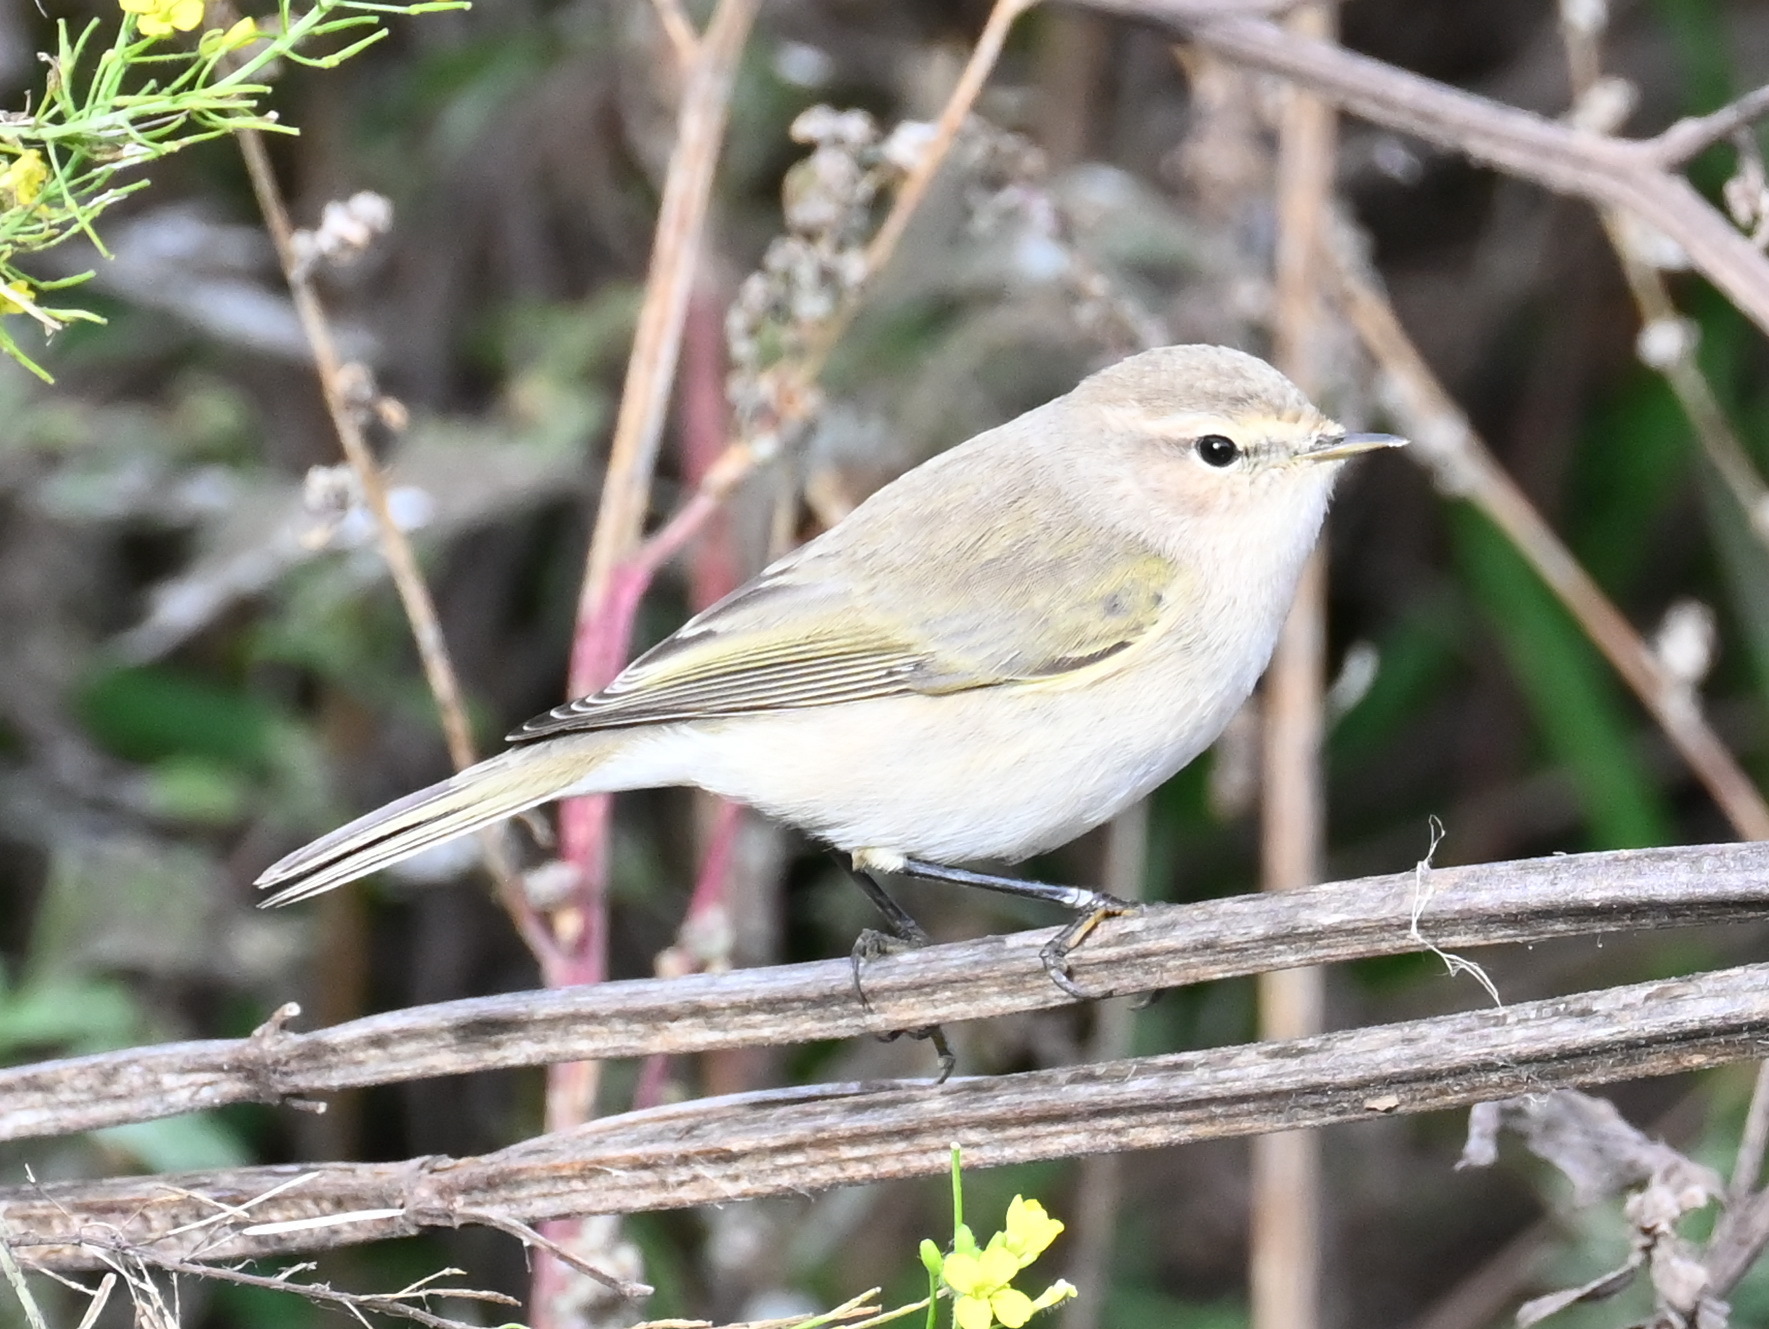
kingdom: Animalia
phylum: Chordata
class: Aves
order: Passeriformes
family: Phylloscopidae
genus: Phylloscopus
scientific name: Phylloscopus collybita
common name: Common chiffchaff
